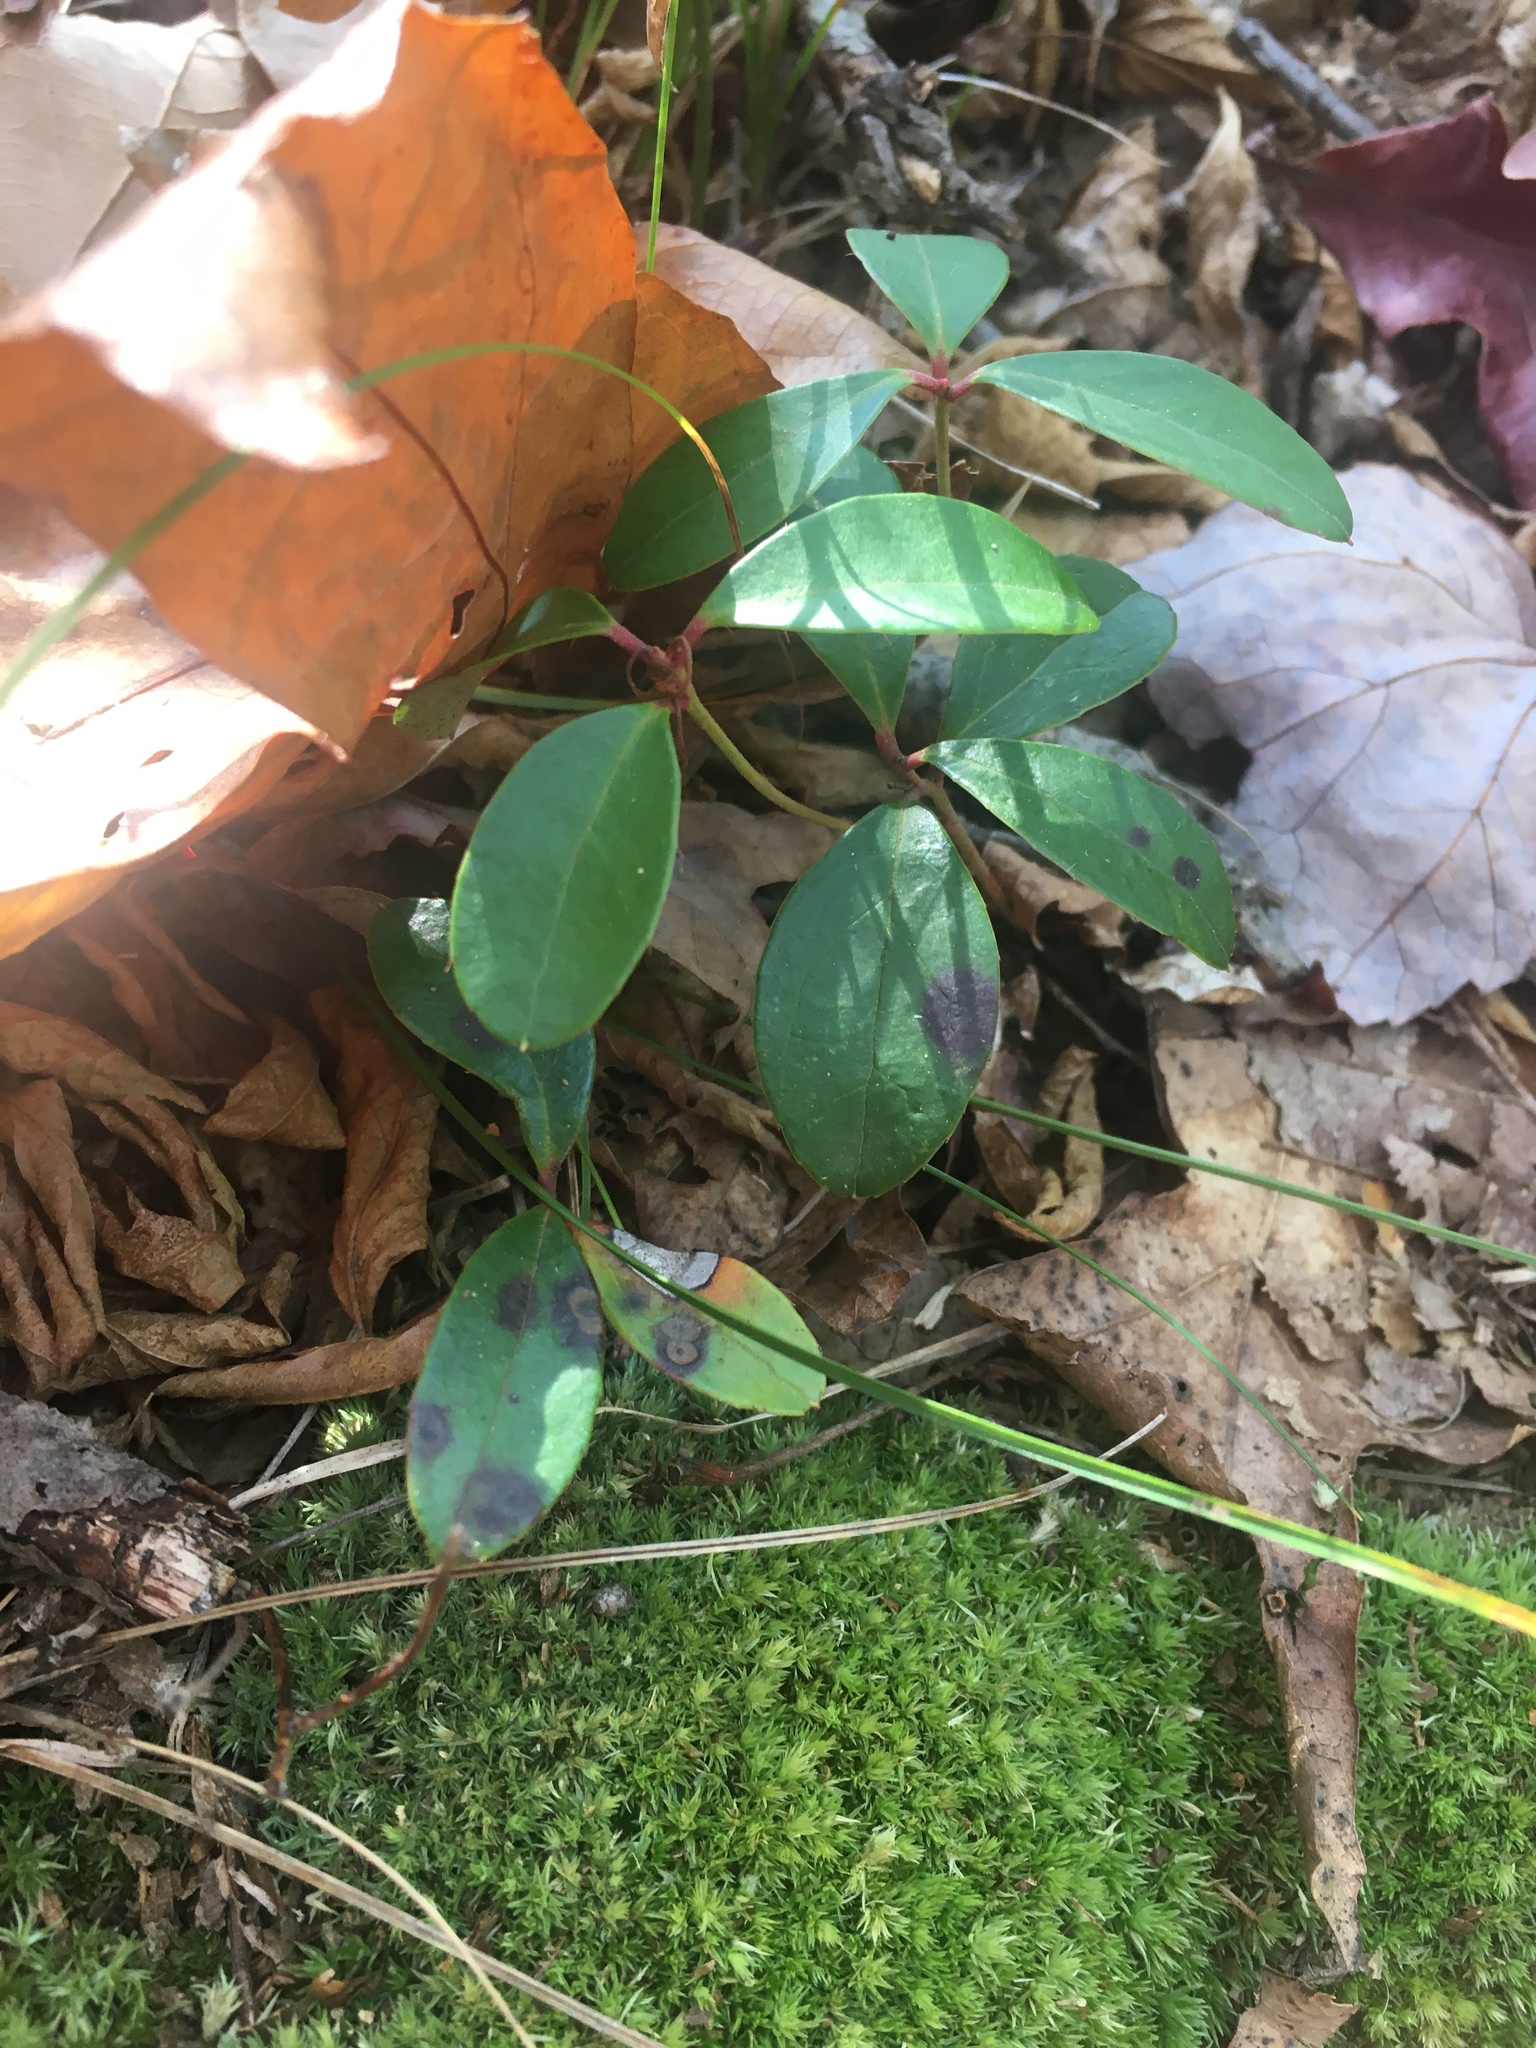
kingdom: Plantae
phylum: Tracheophyta
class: Magnoliopsida
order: Ericales
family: Ericaceae
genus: Gaultheria
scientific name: Gaultheria procumbens
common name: Checkerberry
